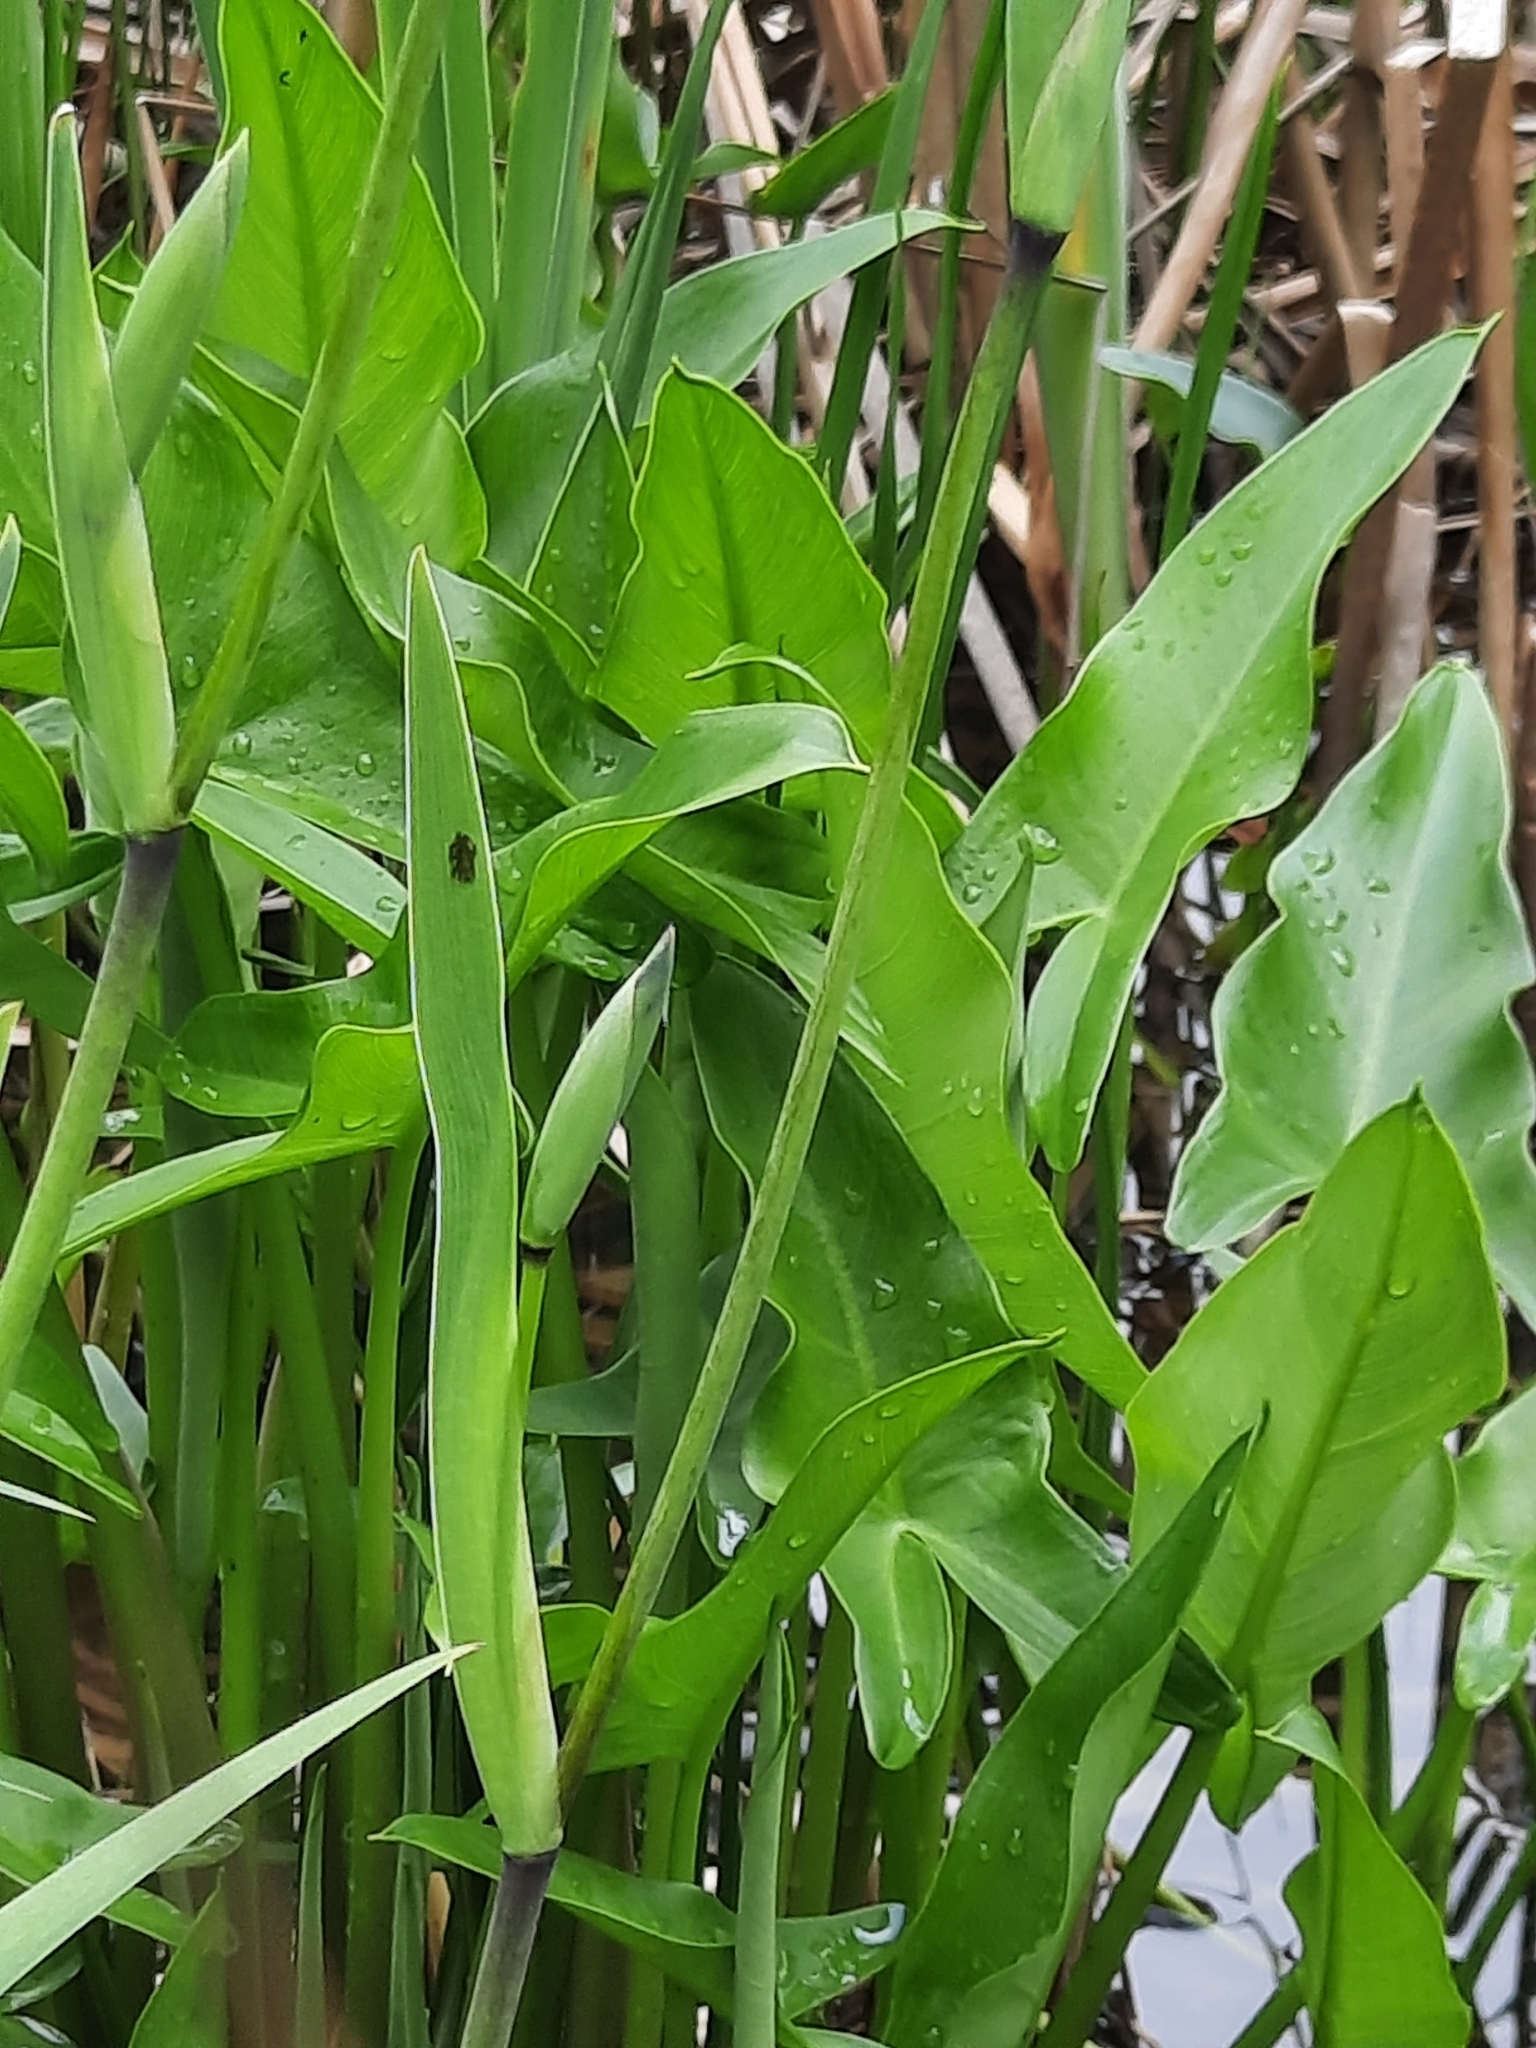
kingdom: Plantae
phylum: Tracheophyta
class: Liliopsida
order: Alismatales
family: Araceae
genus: Peltandra
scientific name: Peltandra virginica
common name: Arrow arum
